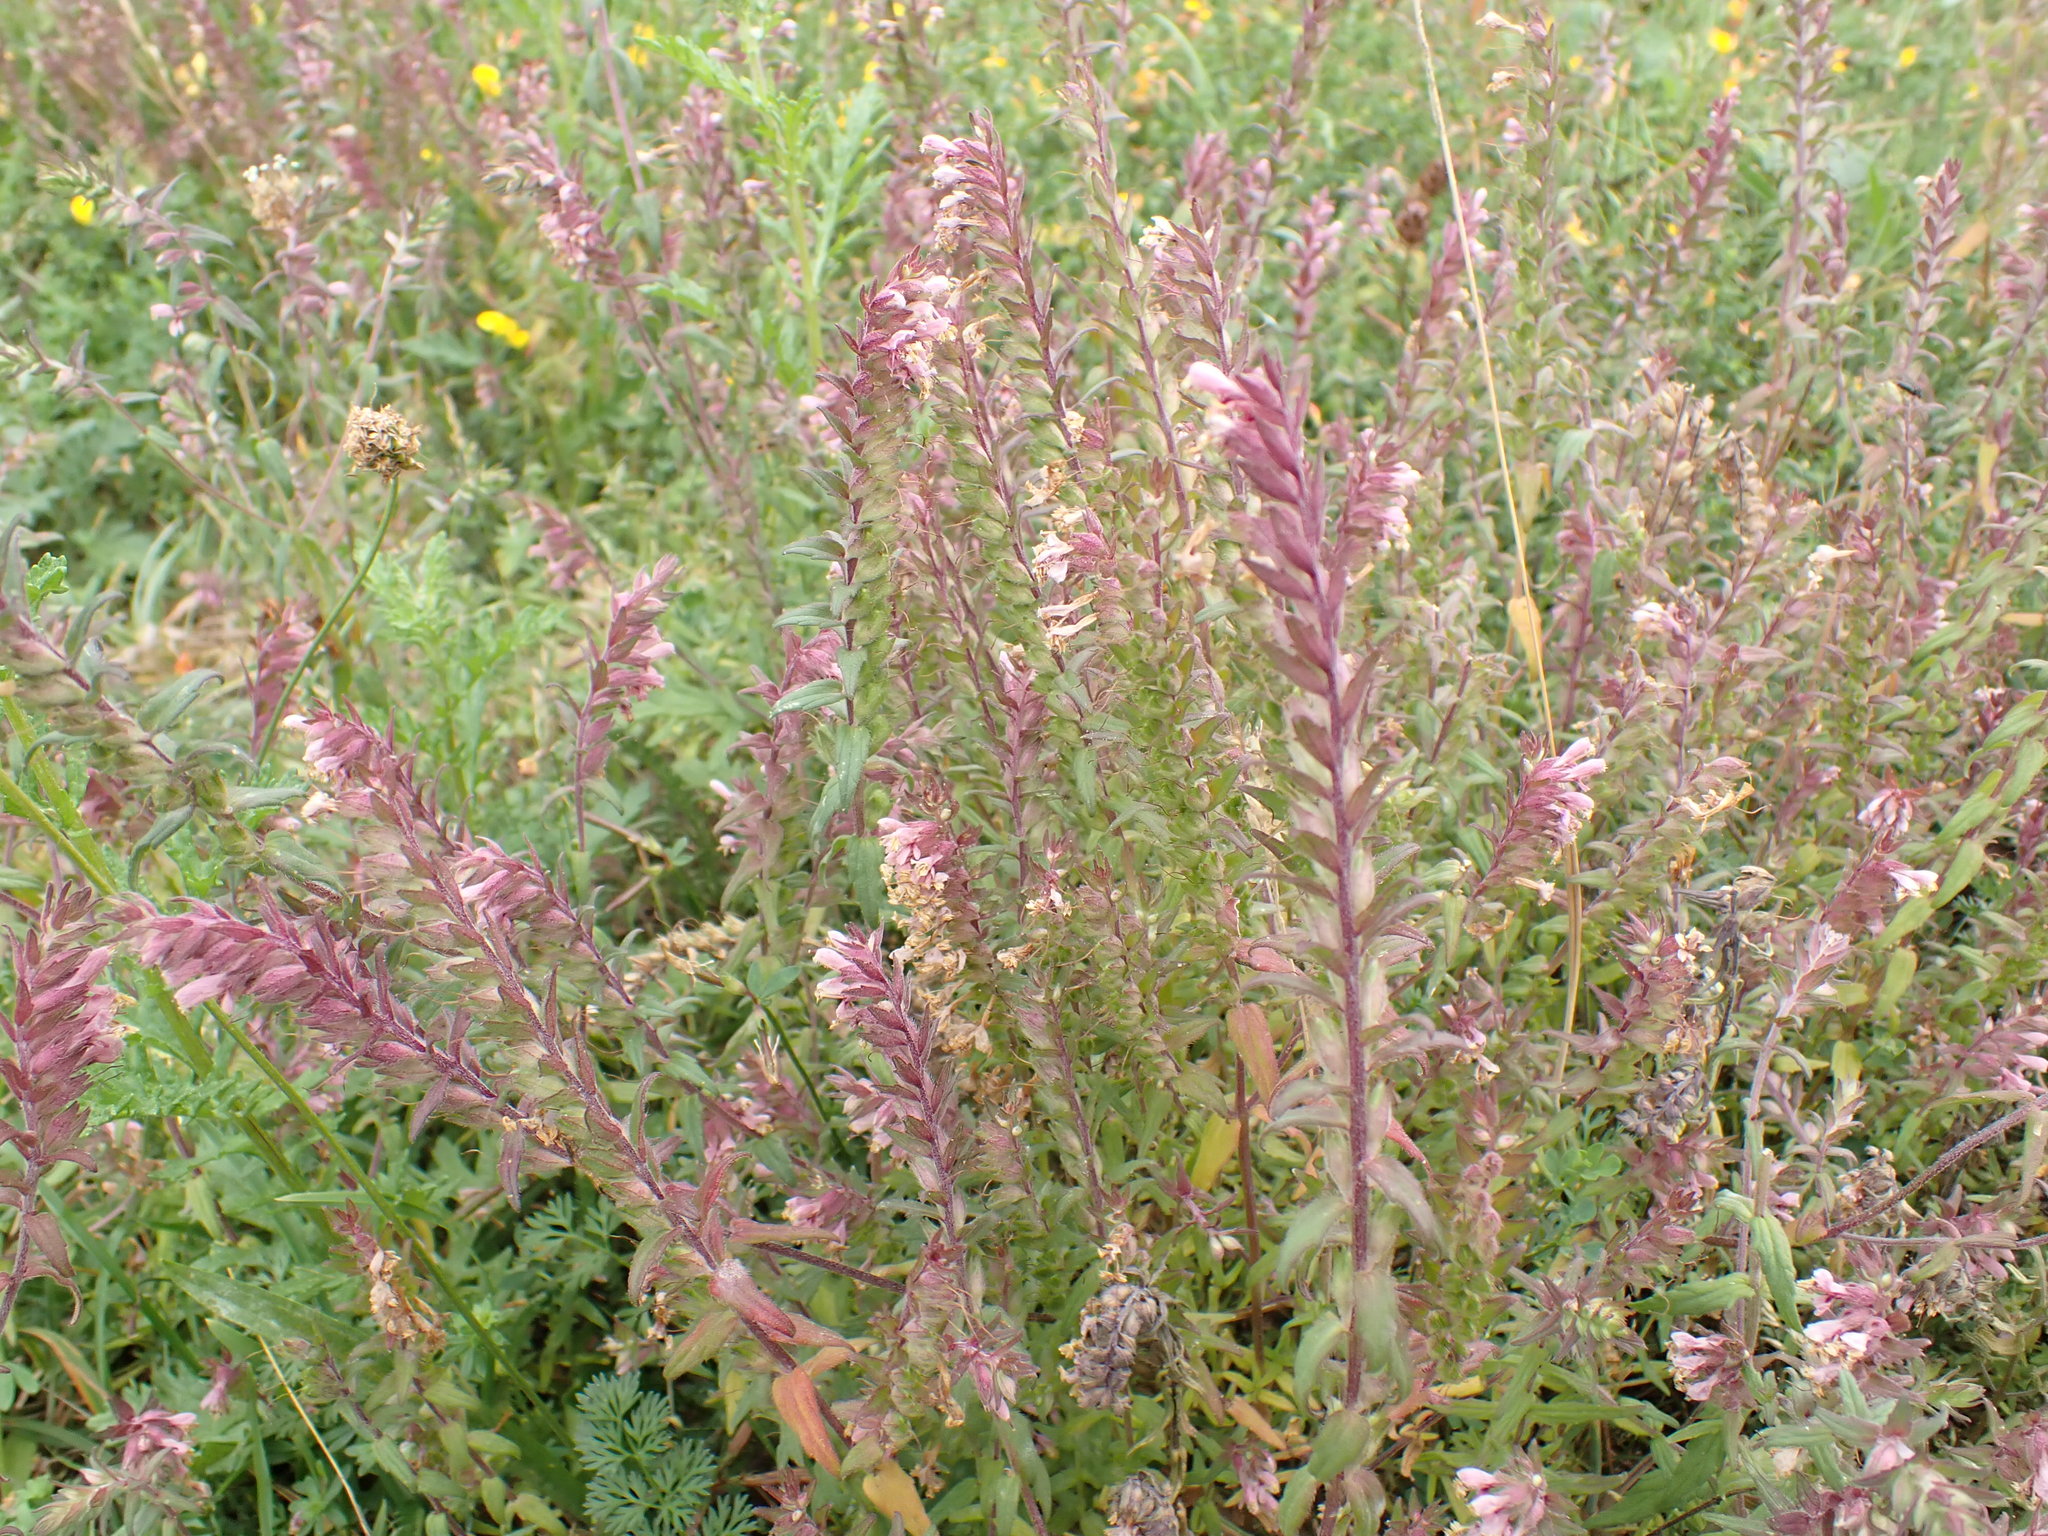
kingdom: Plantae
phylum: Tracheophyta
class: Magnoliopsida
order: Lamiales
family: Orobanchaceae
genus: Odontites
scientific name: Odontites vulgaris
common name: Broomrape
